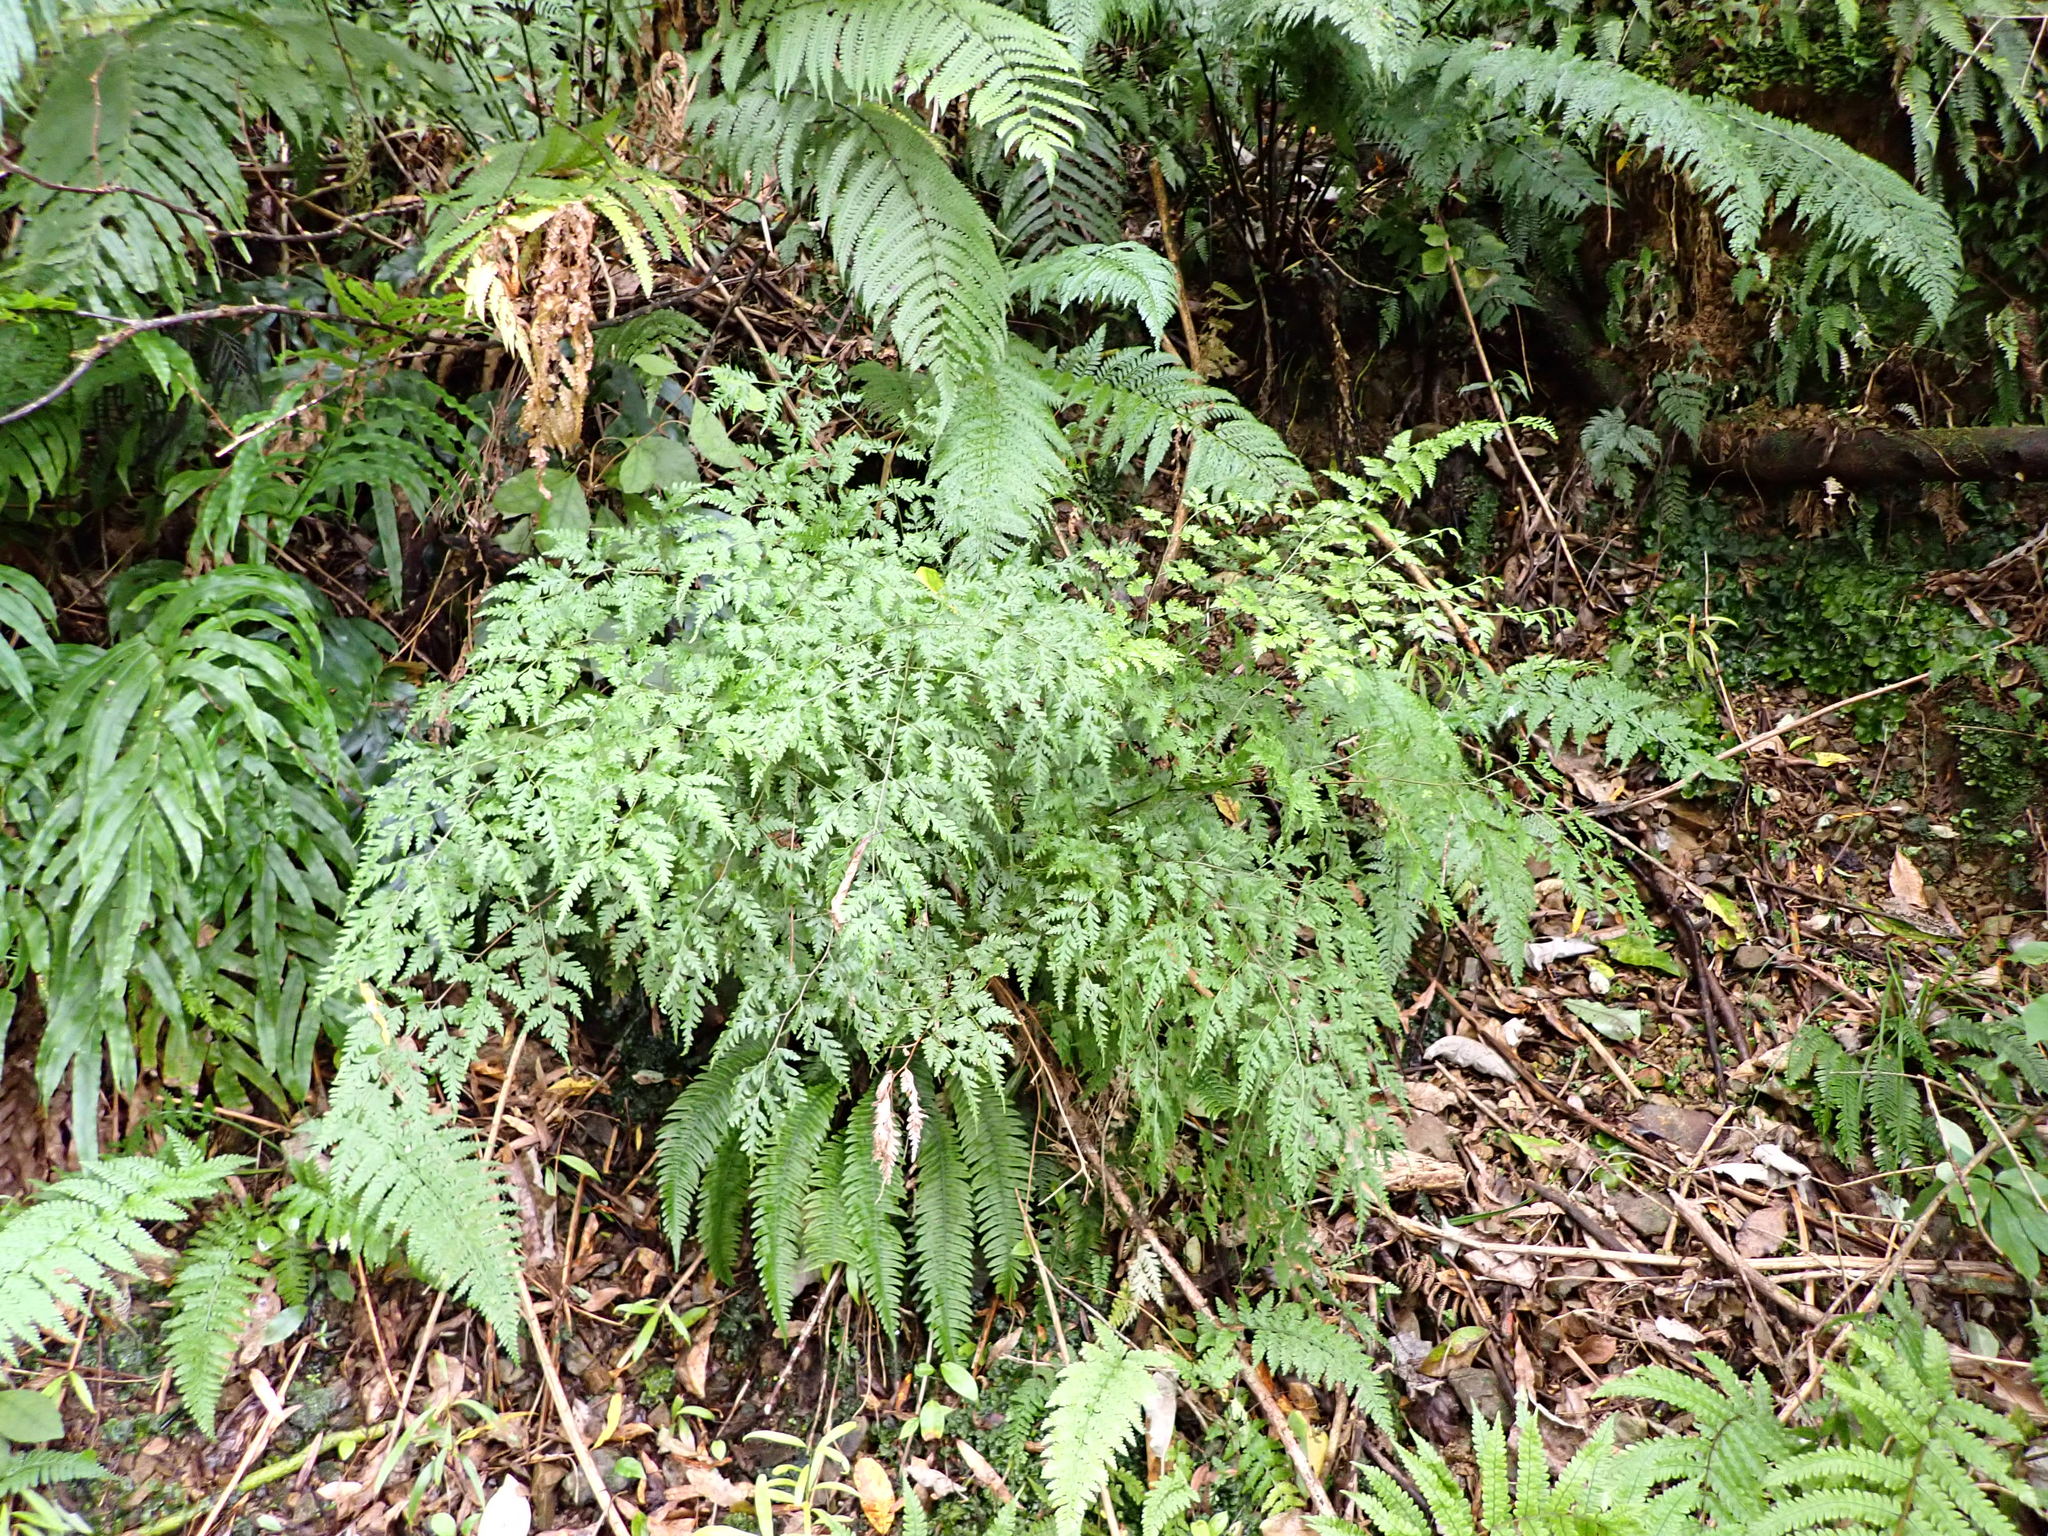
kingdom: Plantae
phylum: Tracheophyta
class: Polypodiopsida
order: Polypodiales
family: Pteridaceae
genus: Pteris
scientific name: Pteris macilenta
